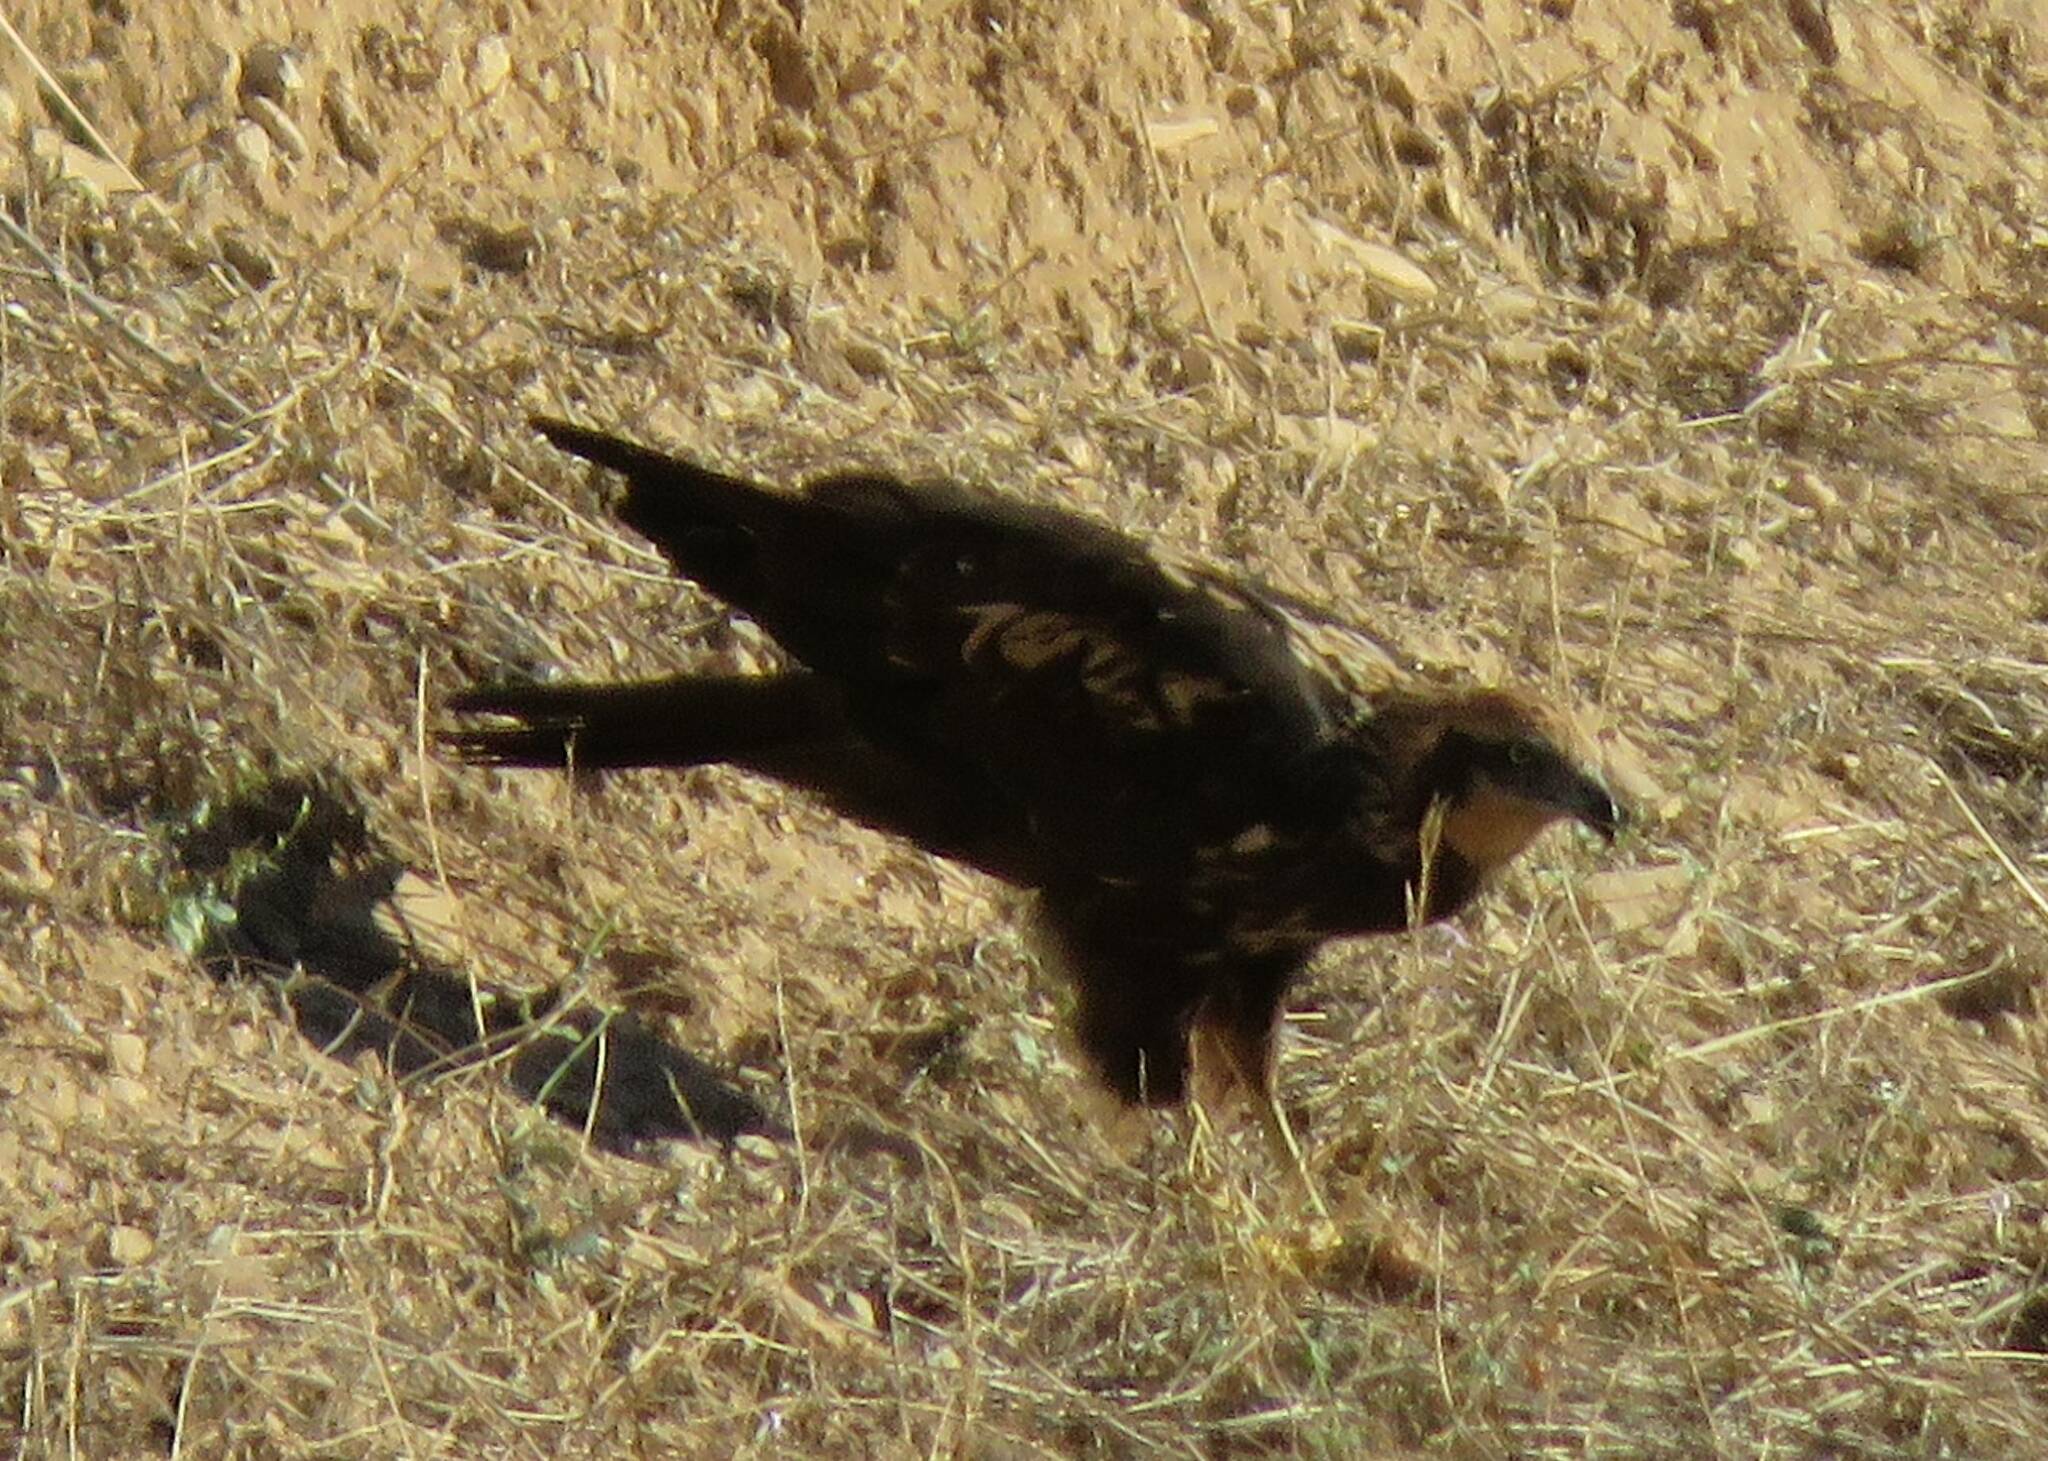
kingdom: Animalia
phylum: Chordata
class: Aves
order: Accipitriformes
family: Accipitridae
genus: Circus
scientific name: Circus aeruginosus
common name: Western marsh harrier
